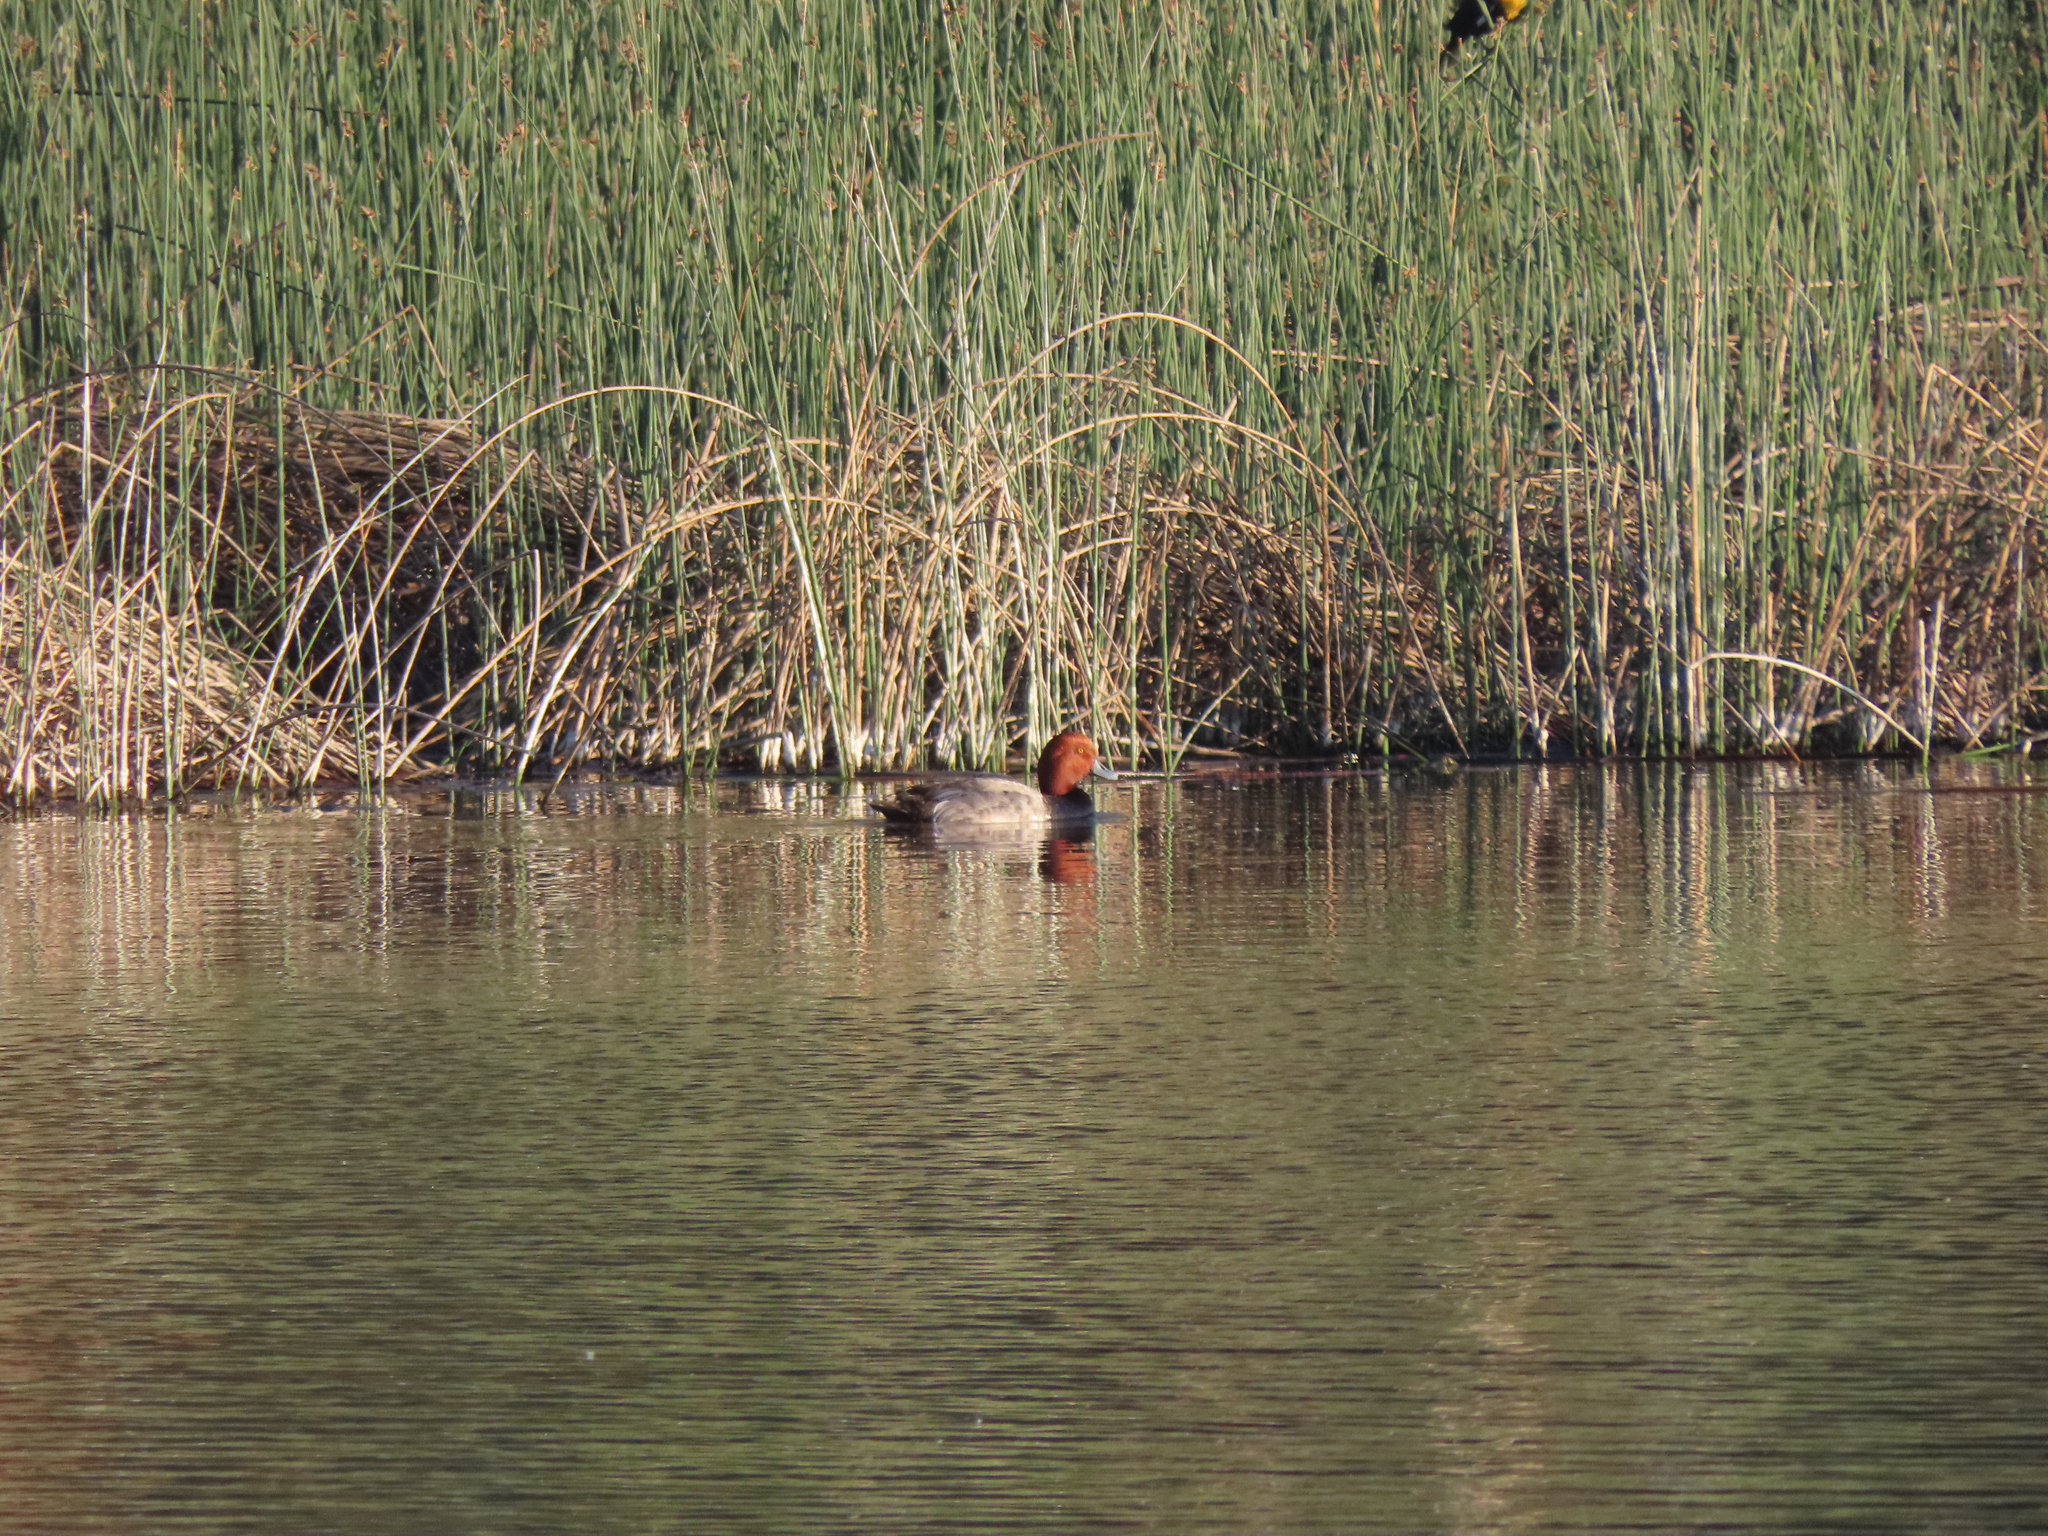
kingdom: Animalia
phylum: Chordata
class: Aves
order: Anseriformes
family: Anatidae
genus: Aythya
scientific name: Aythya americana
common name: Redhead
